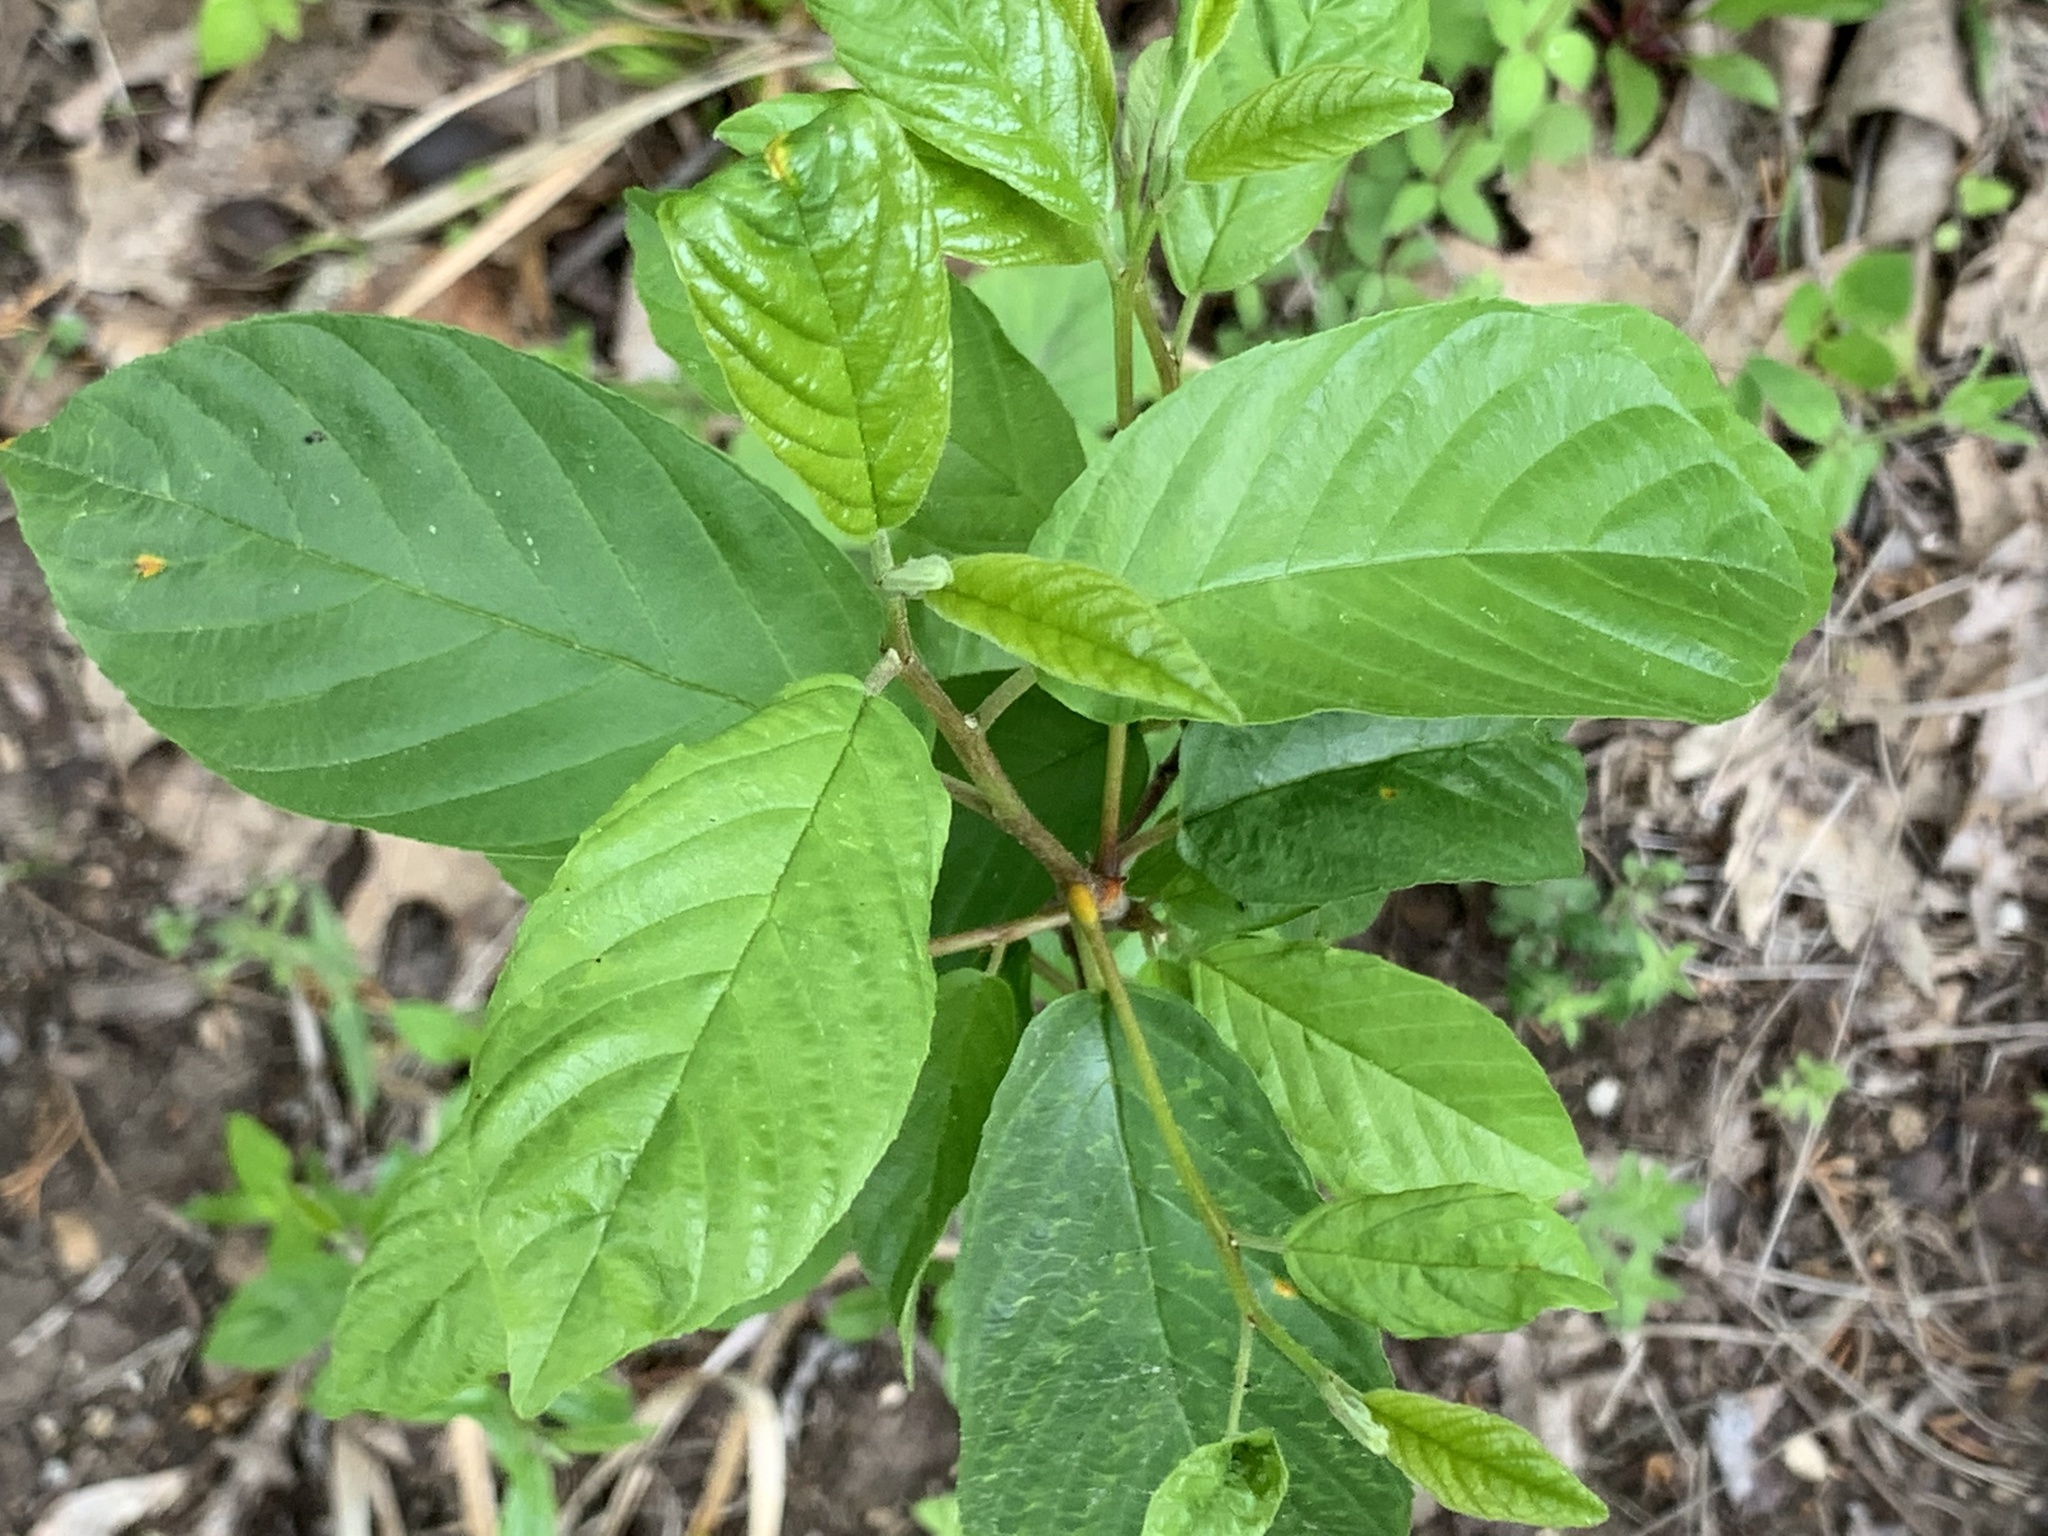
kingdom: Plantae
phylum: Tracheophyta
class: Magnoliopsida
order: Rosales
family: Rhamnaceae
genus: Frangula
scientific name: Frangula caroliniana
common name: Carolina buckthorn
